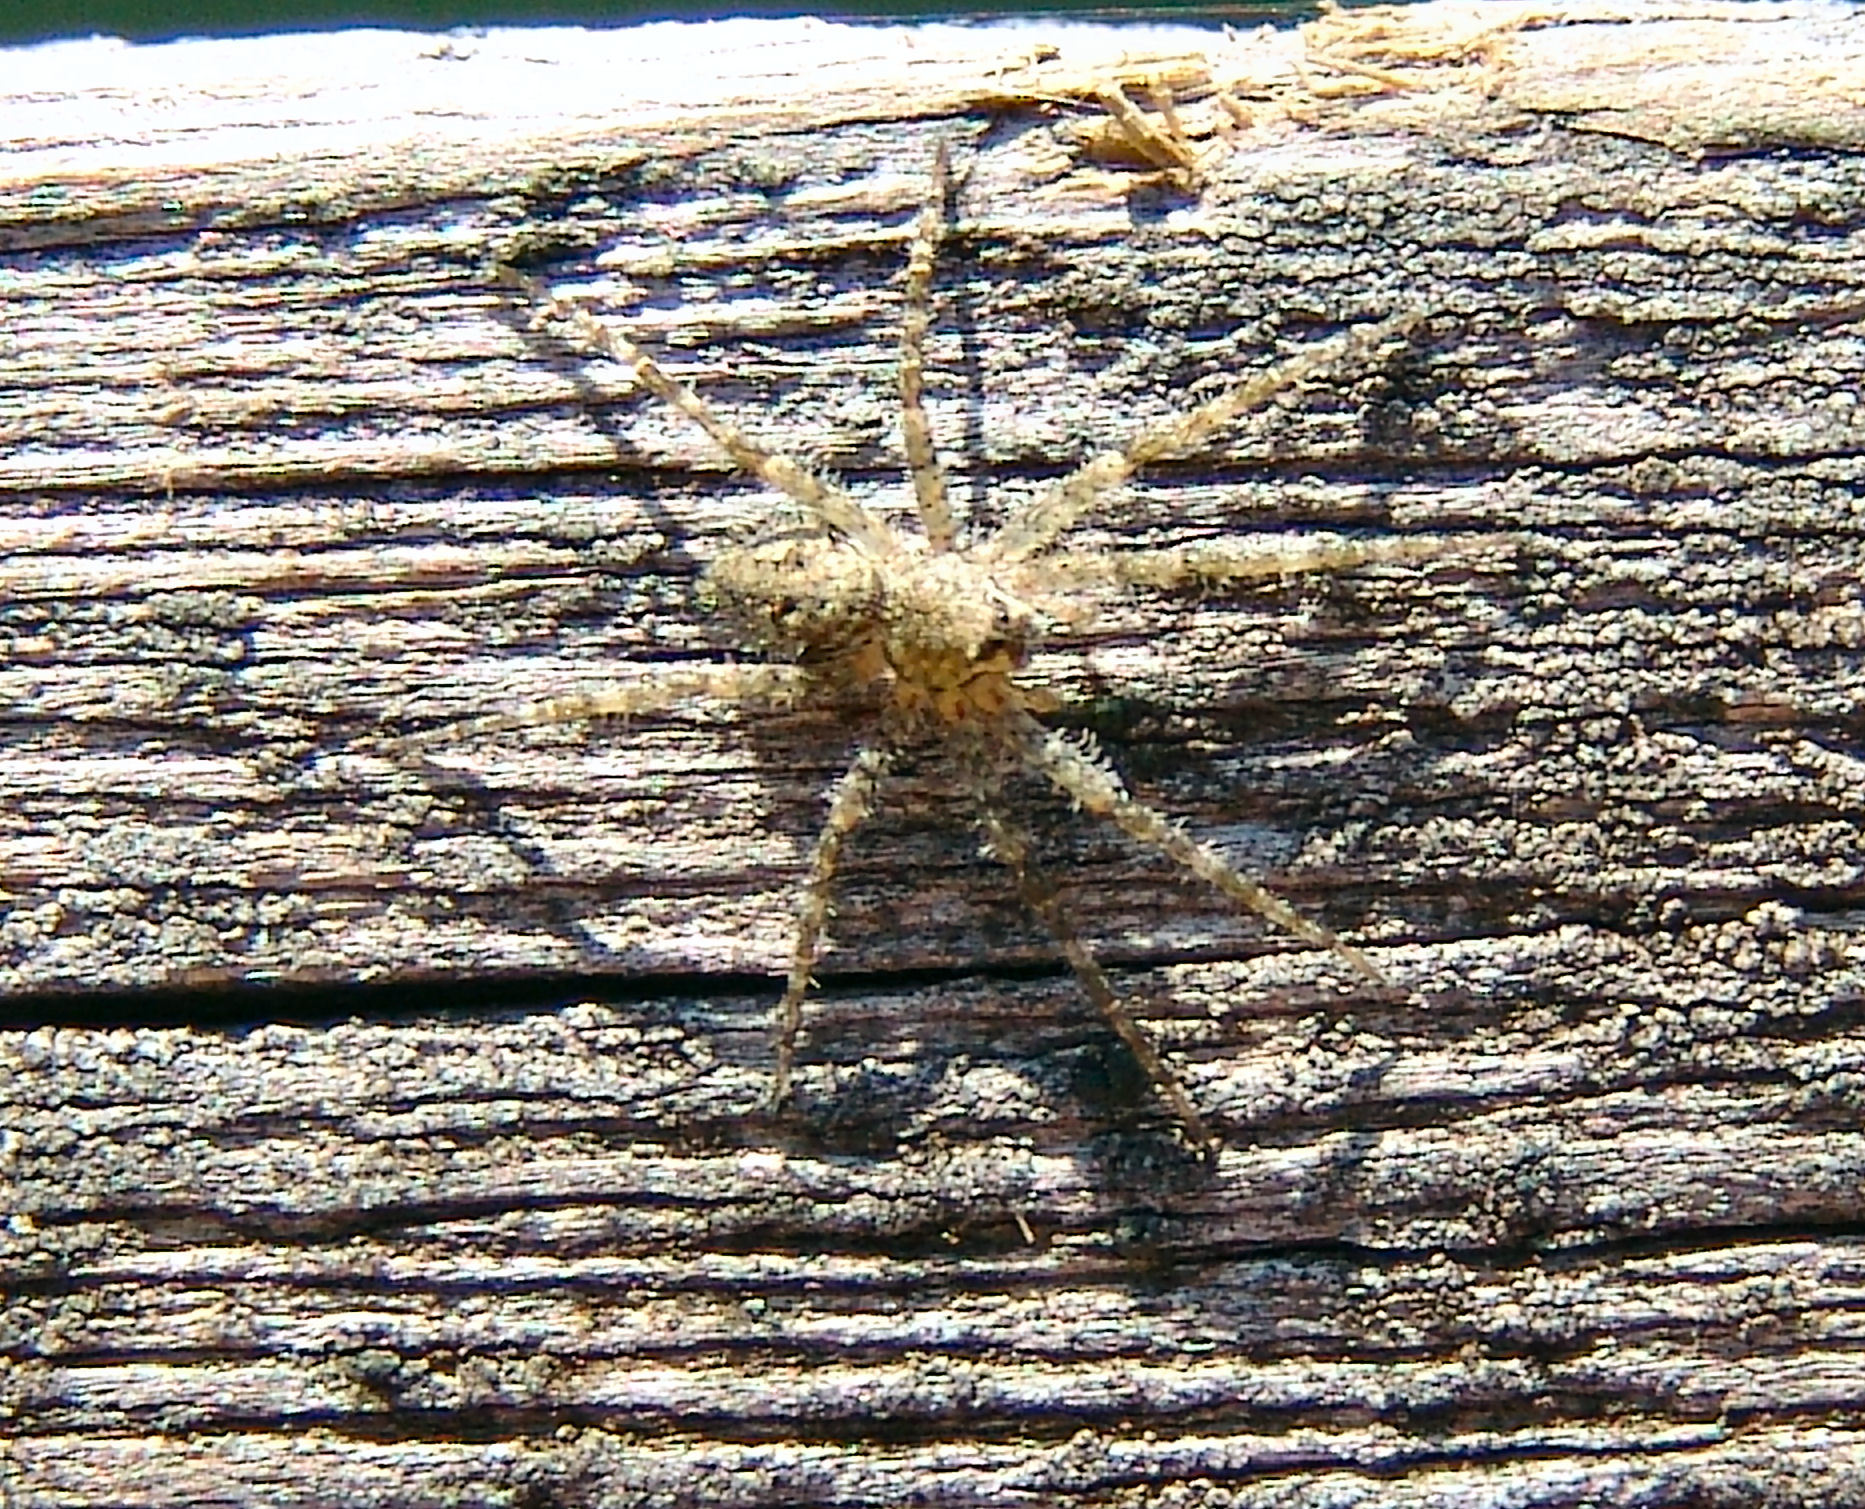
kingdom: Animalia
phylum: Arthropoda
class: Arachnida
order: Araneae
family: Pisauridae
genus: Dolomedes
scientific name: Dolomedes albineus
